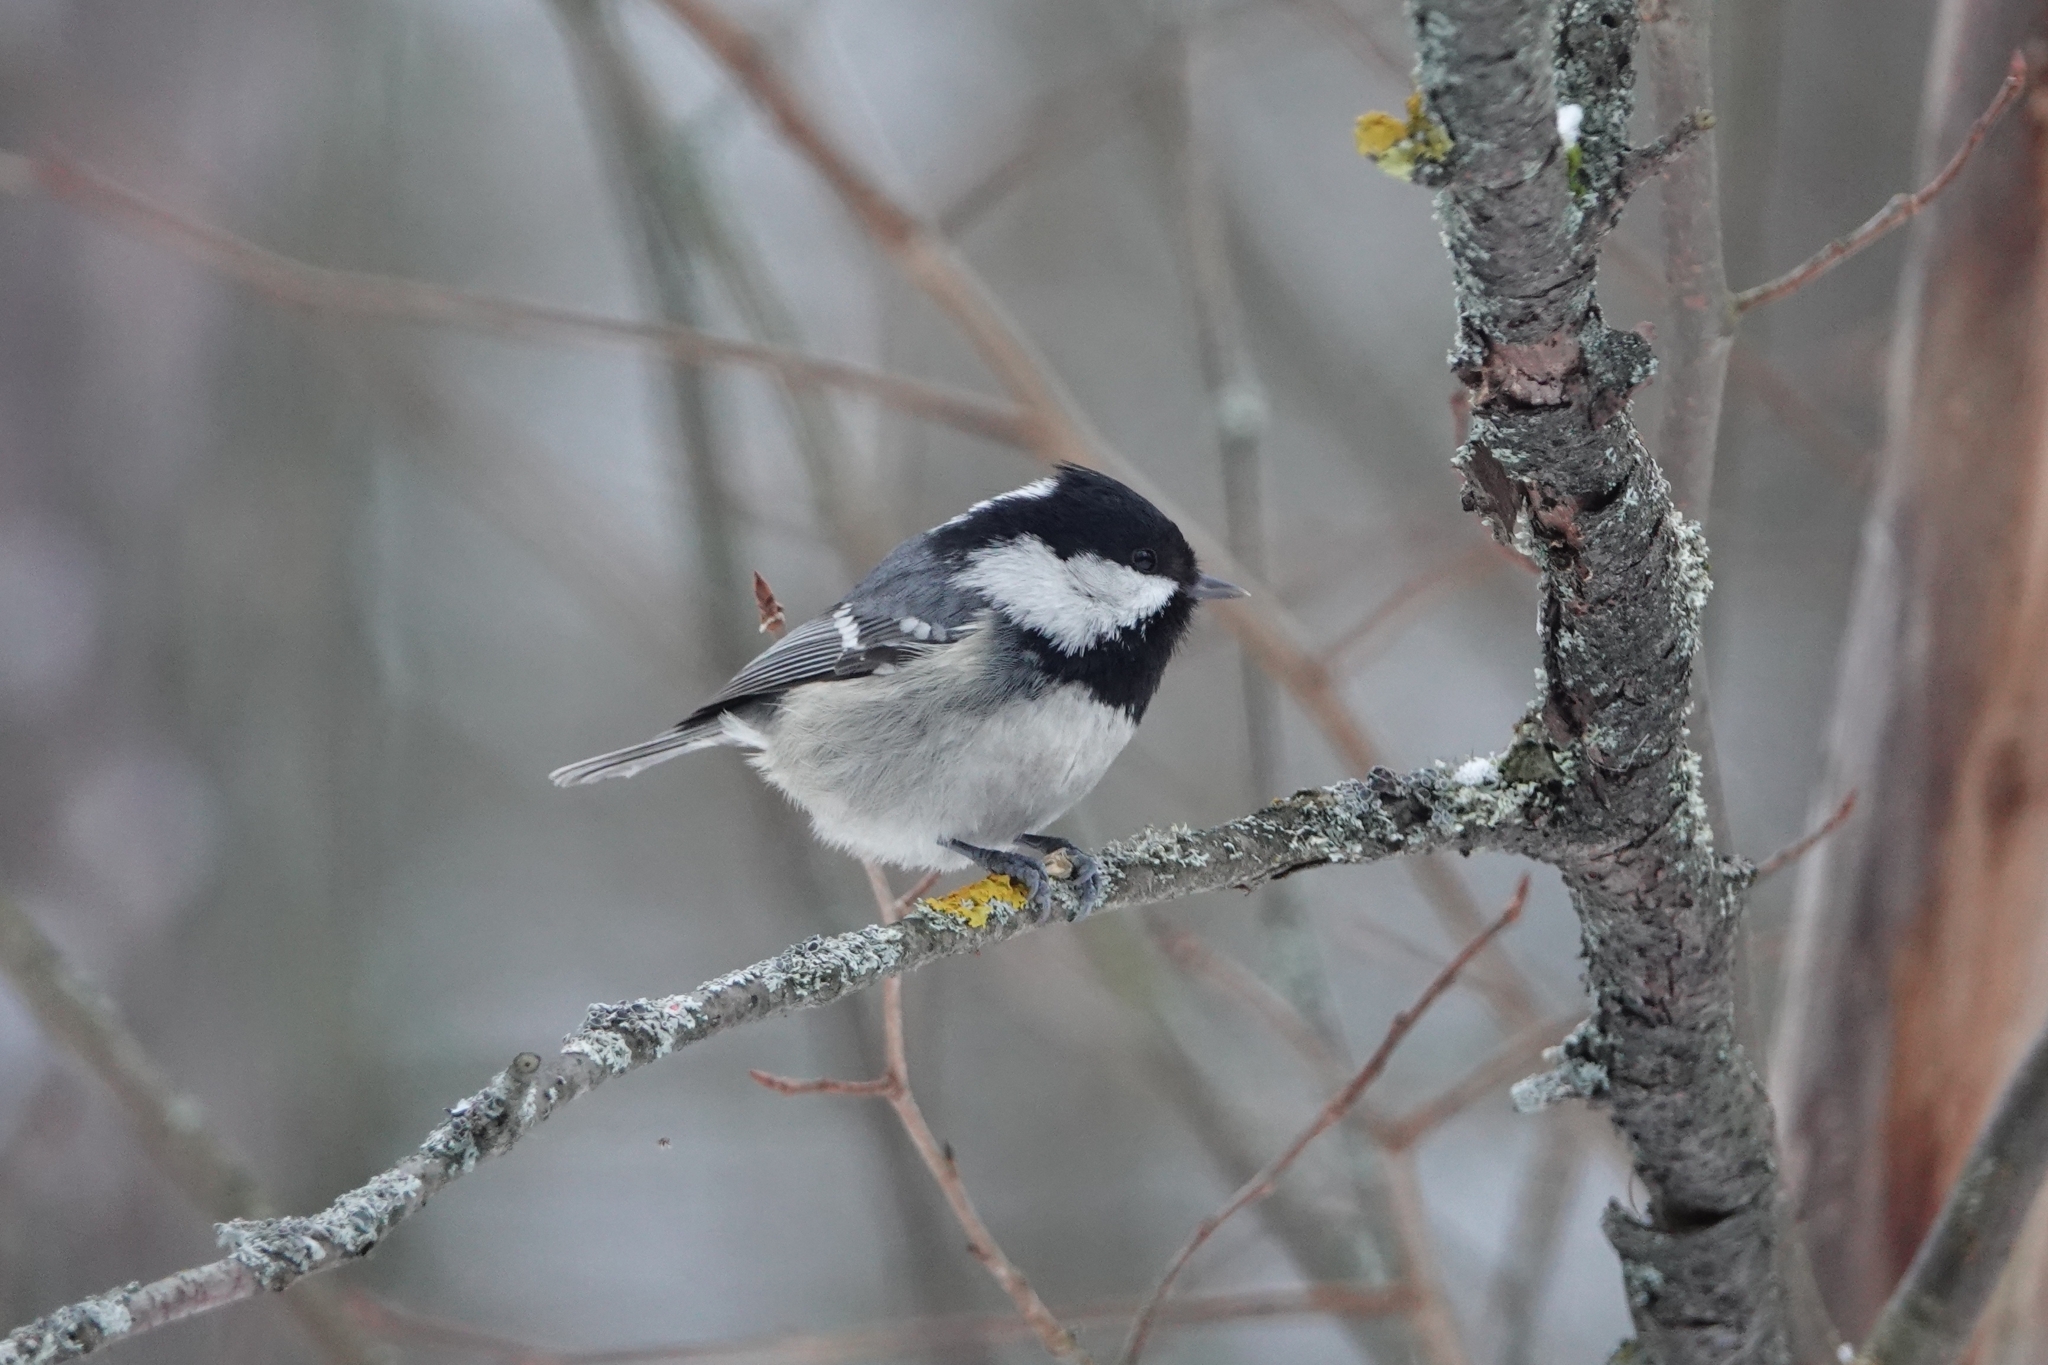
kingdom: Animalia
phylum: Chordata
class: Aves
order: Passeriformes
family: Paridae
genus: Periparus
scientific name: Periparus ater
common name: Coal tit
